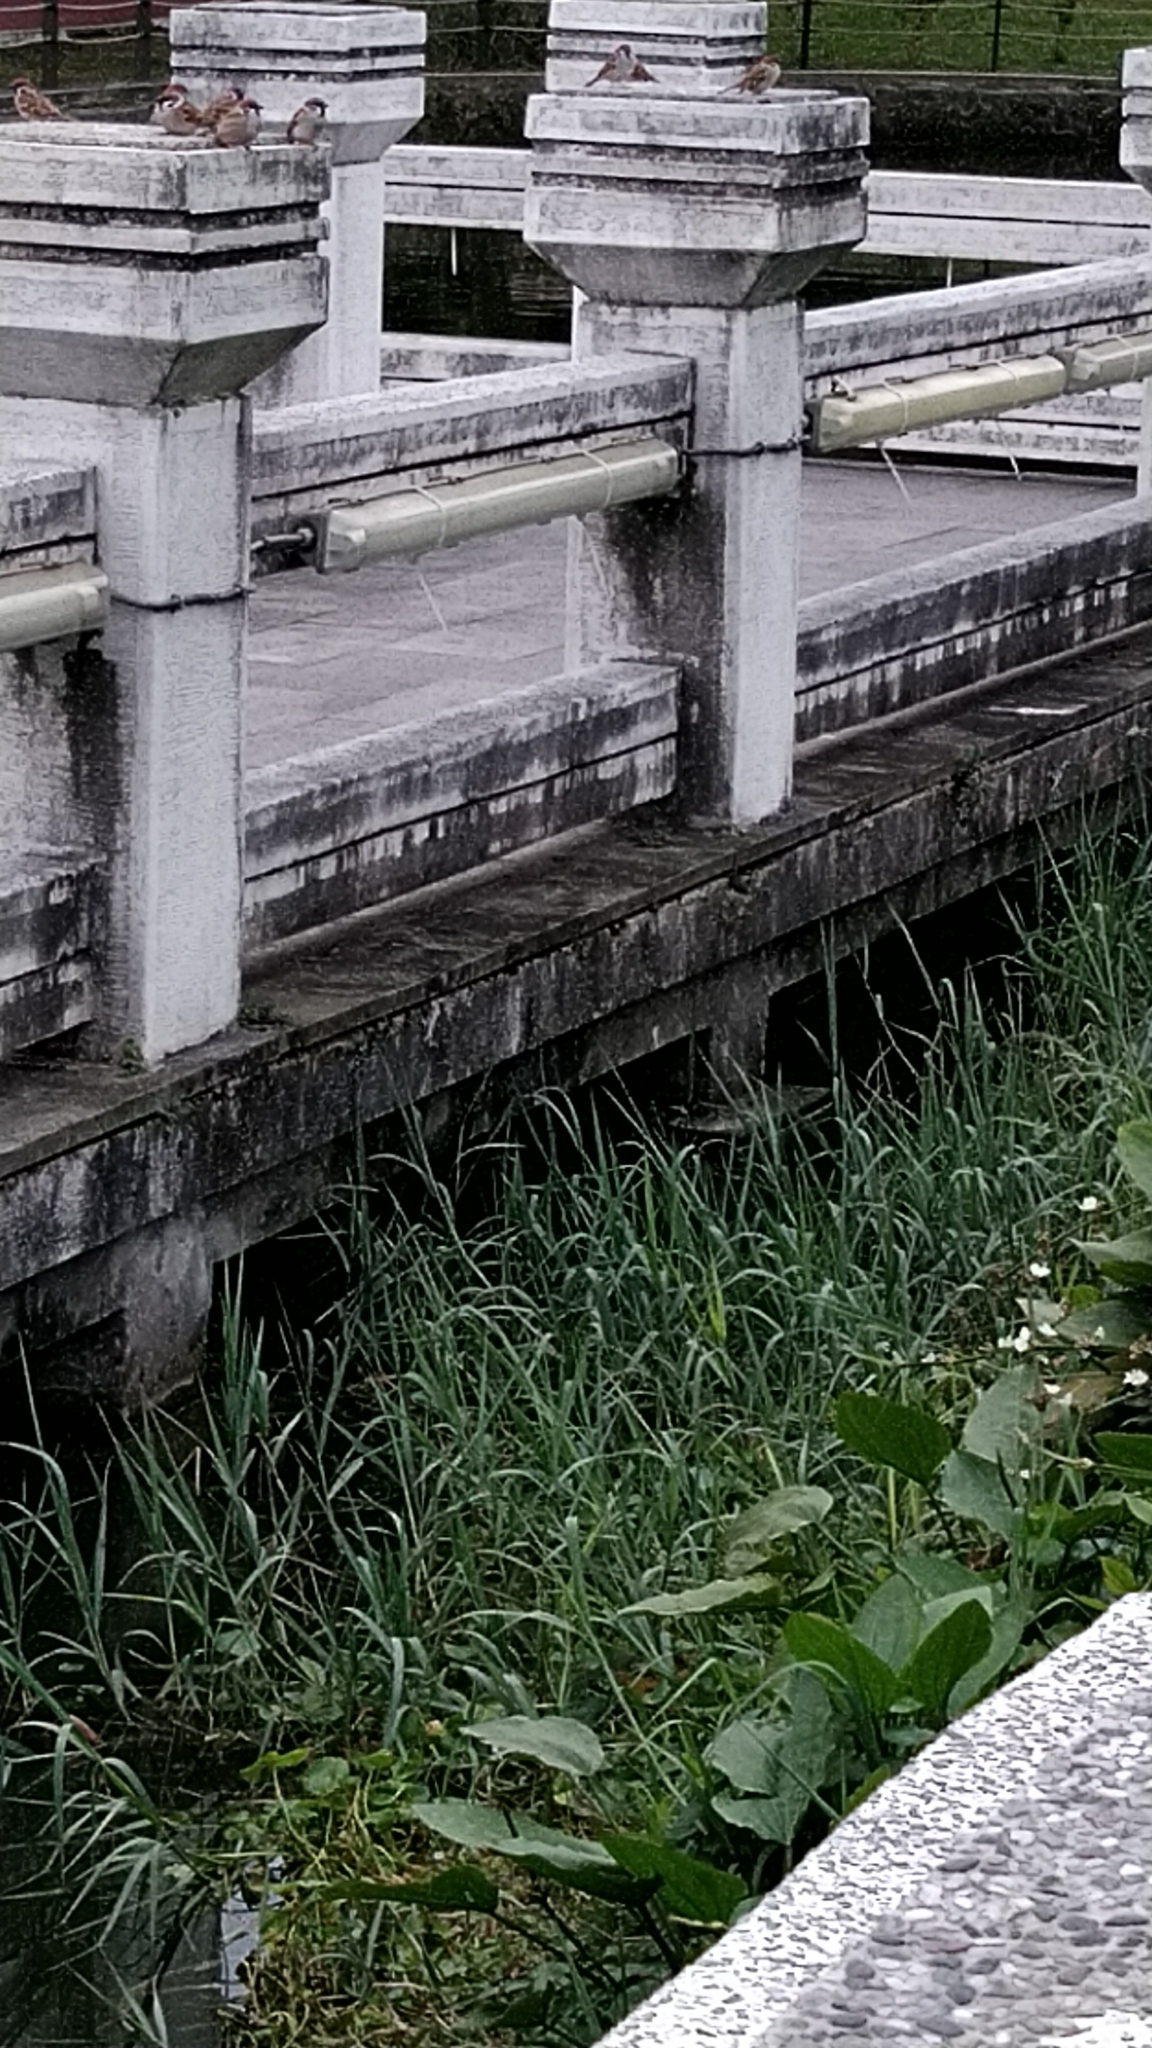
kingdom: Animalia
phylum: Chordata
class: Aves
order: Passeriformes
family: Passeridae
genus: Passer
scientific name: Passer montanus
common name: Eurasian tree sparrow
